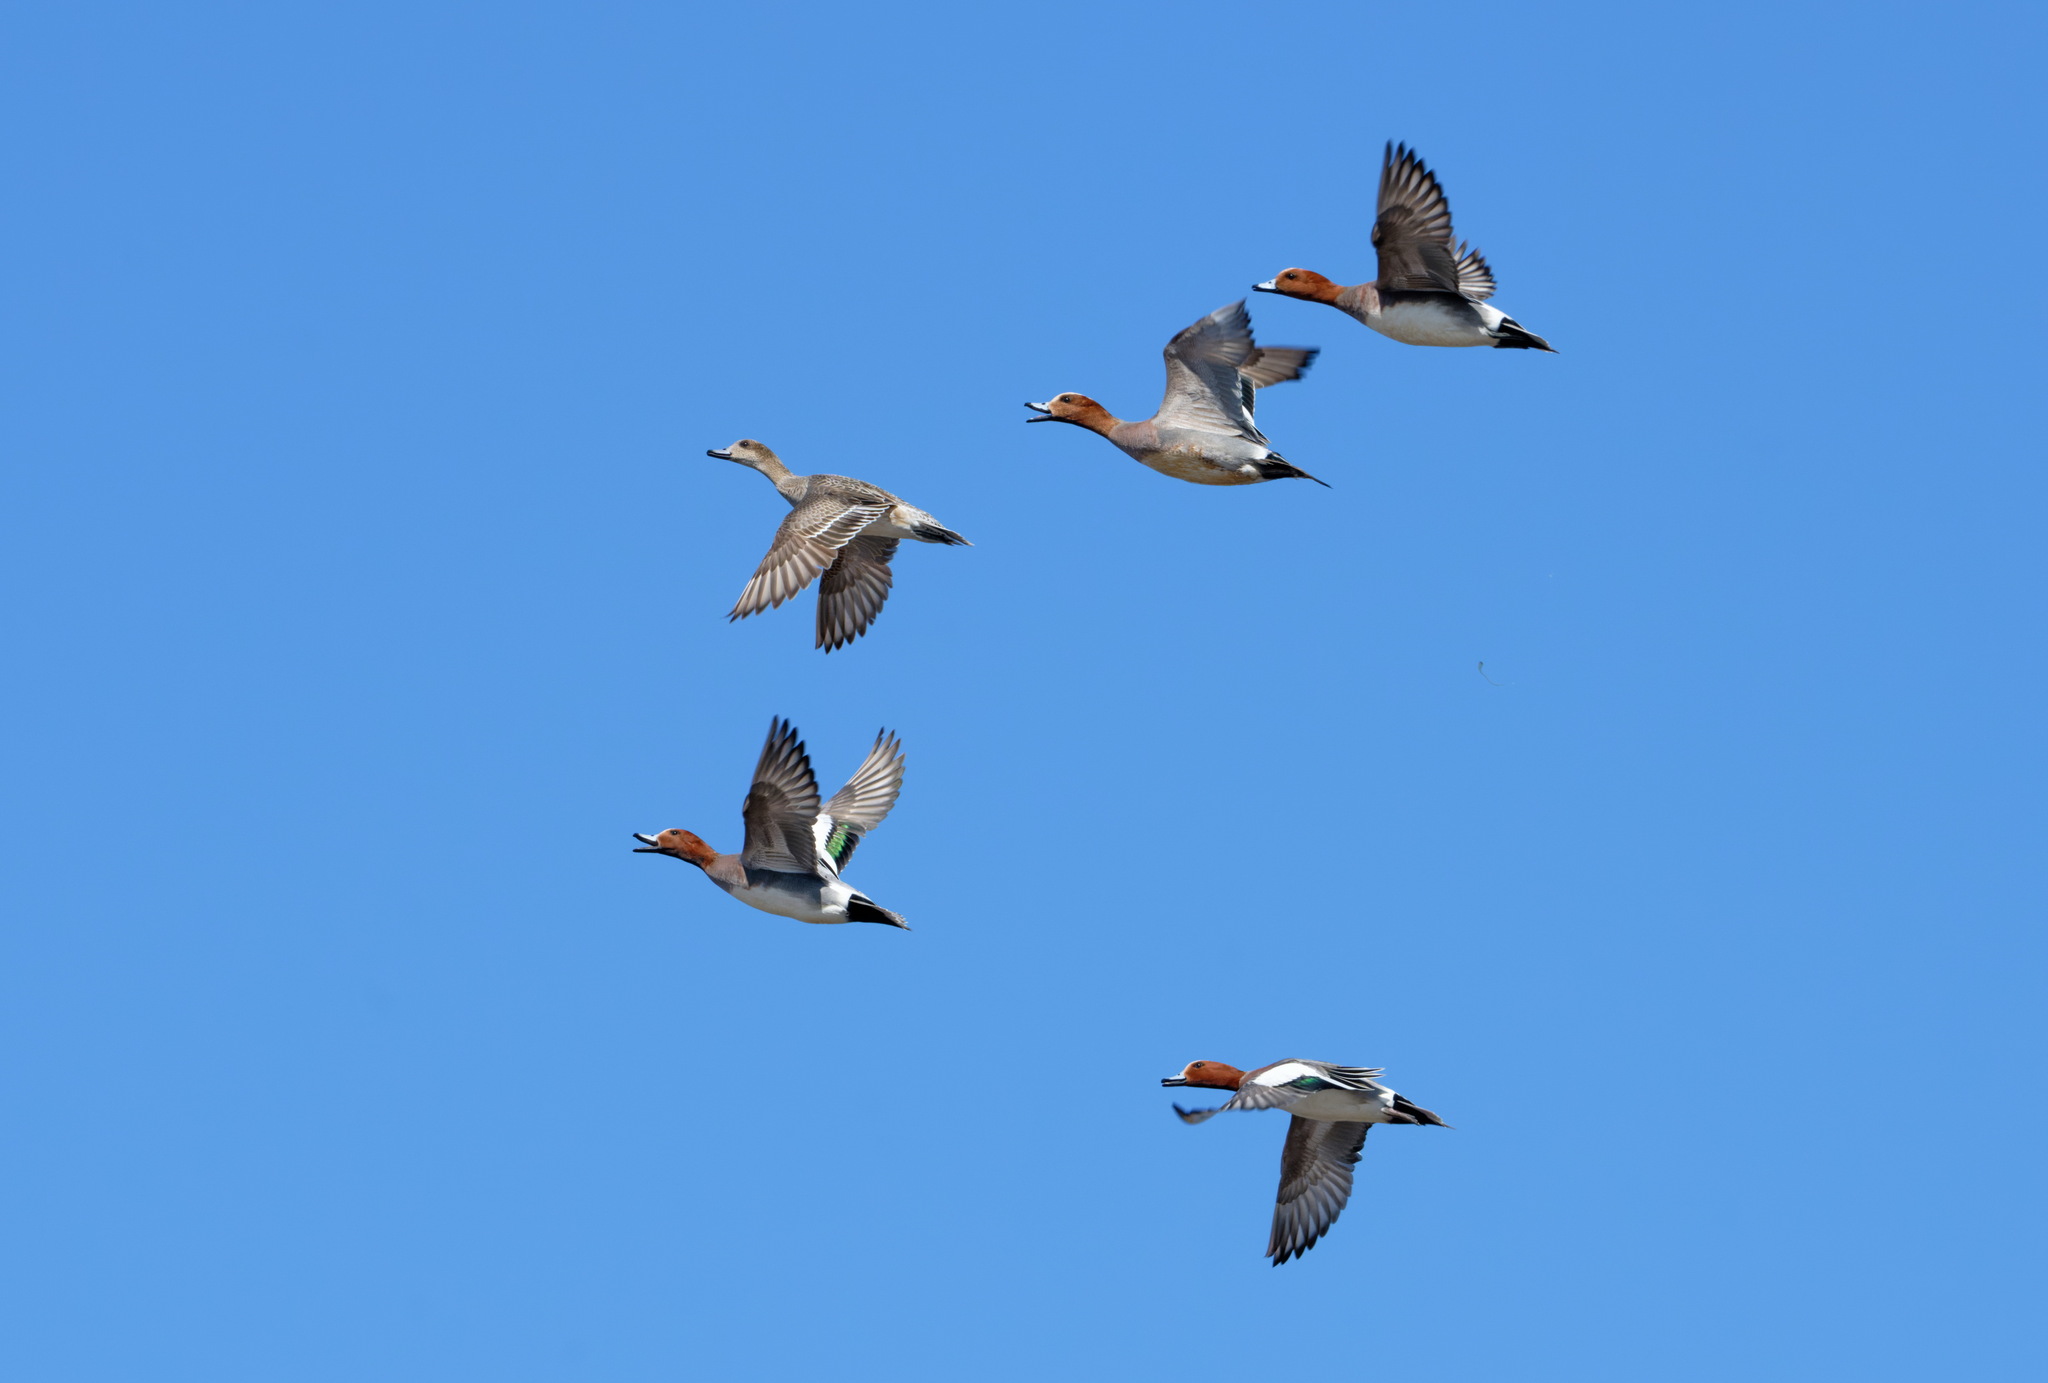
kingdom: Animalia
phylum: Chordata
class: Aves
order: Anseriformes
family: Anatidae
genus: Mareca
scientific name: Mareca penelope
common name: Eurasian wigeon
